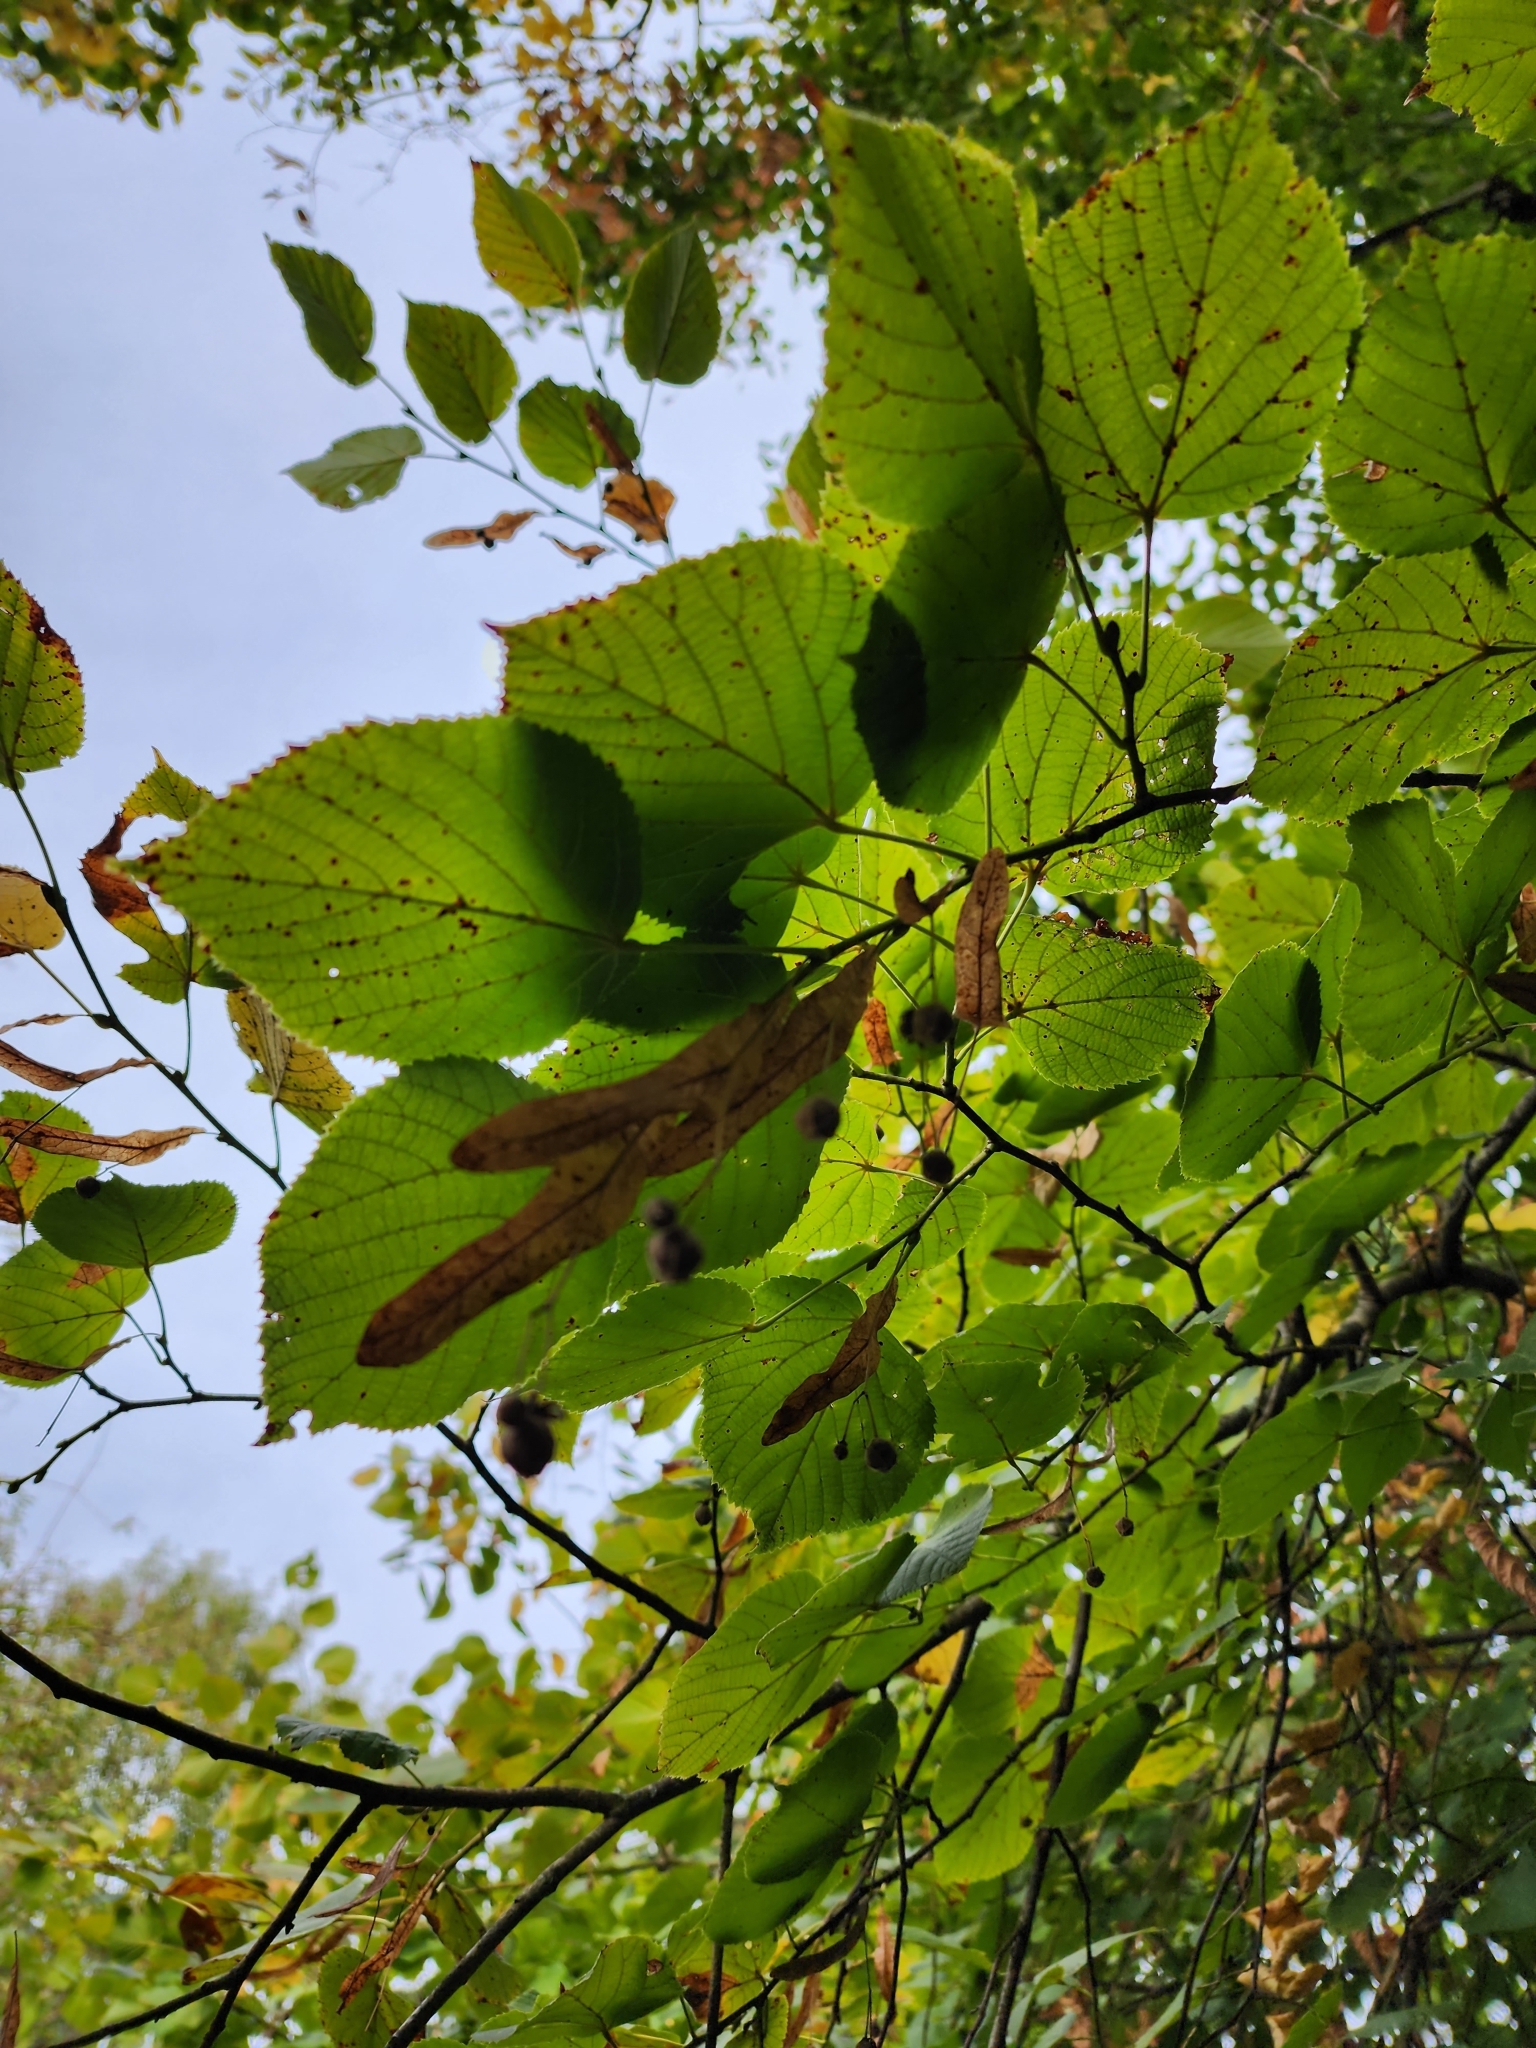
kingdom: Plantae
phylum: Tracheophyta
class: Magnoliopsida
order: Malvales
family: Malvaceae
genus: Tilia
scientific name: Tilia platyphyllos
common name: Large-leaved lime
